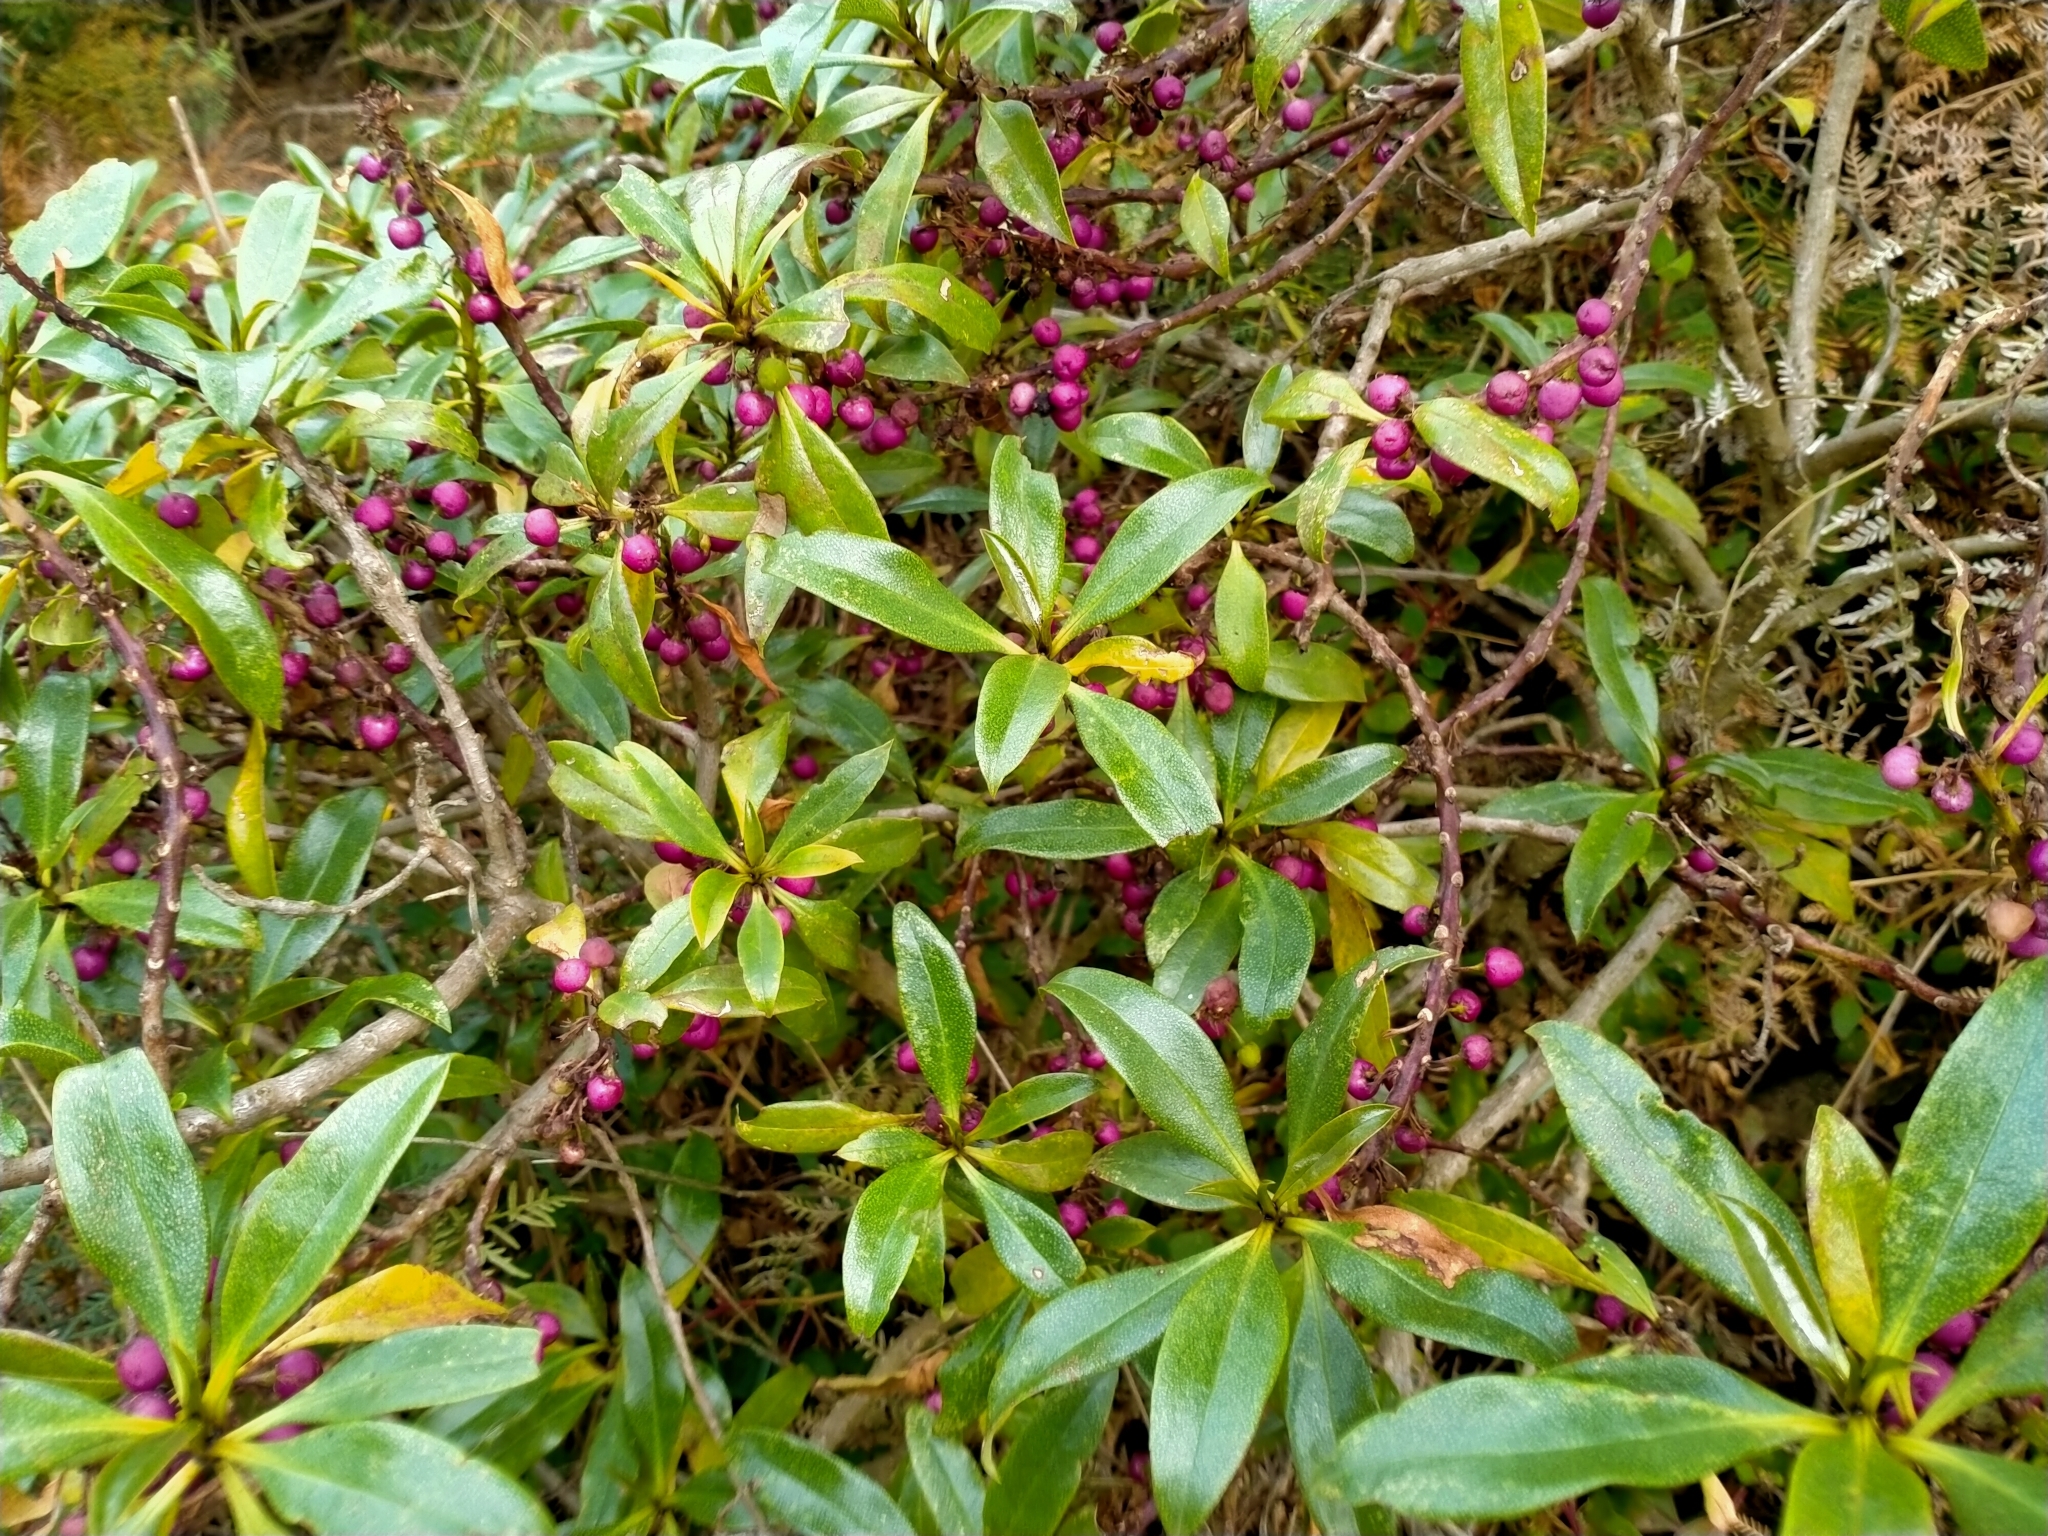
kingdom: Plantae
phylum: Tracheophyta
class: Magnoliopsida
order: Lamiales
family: Scrophulariaceae
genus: Myoporum
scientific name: Myoporum laetum
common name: Ngaio tree
